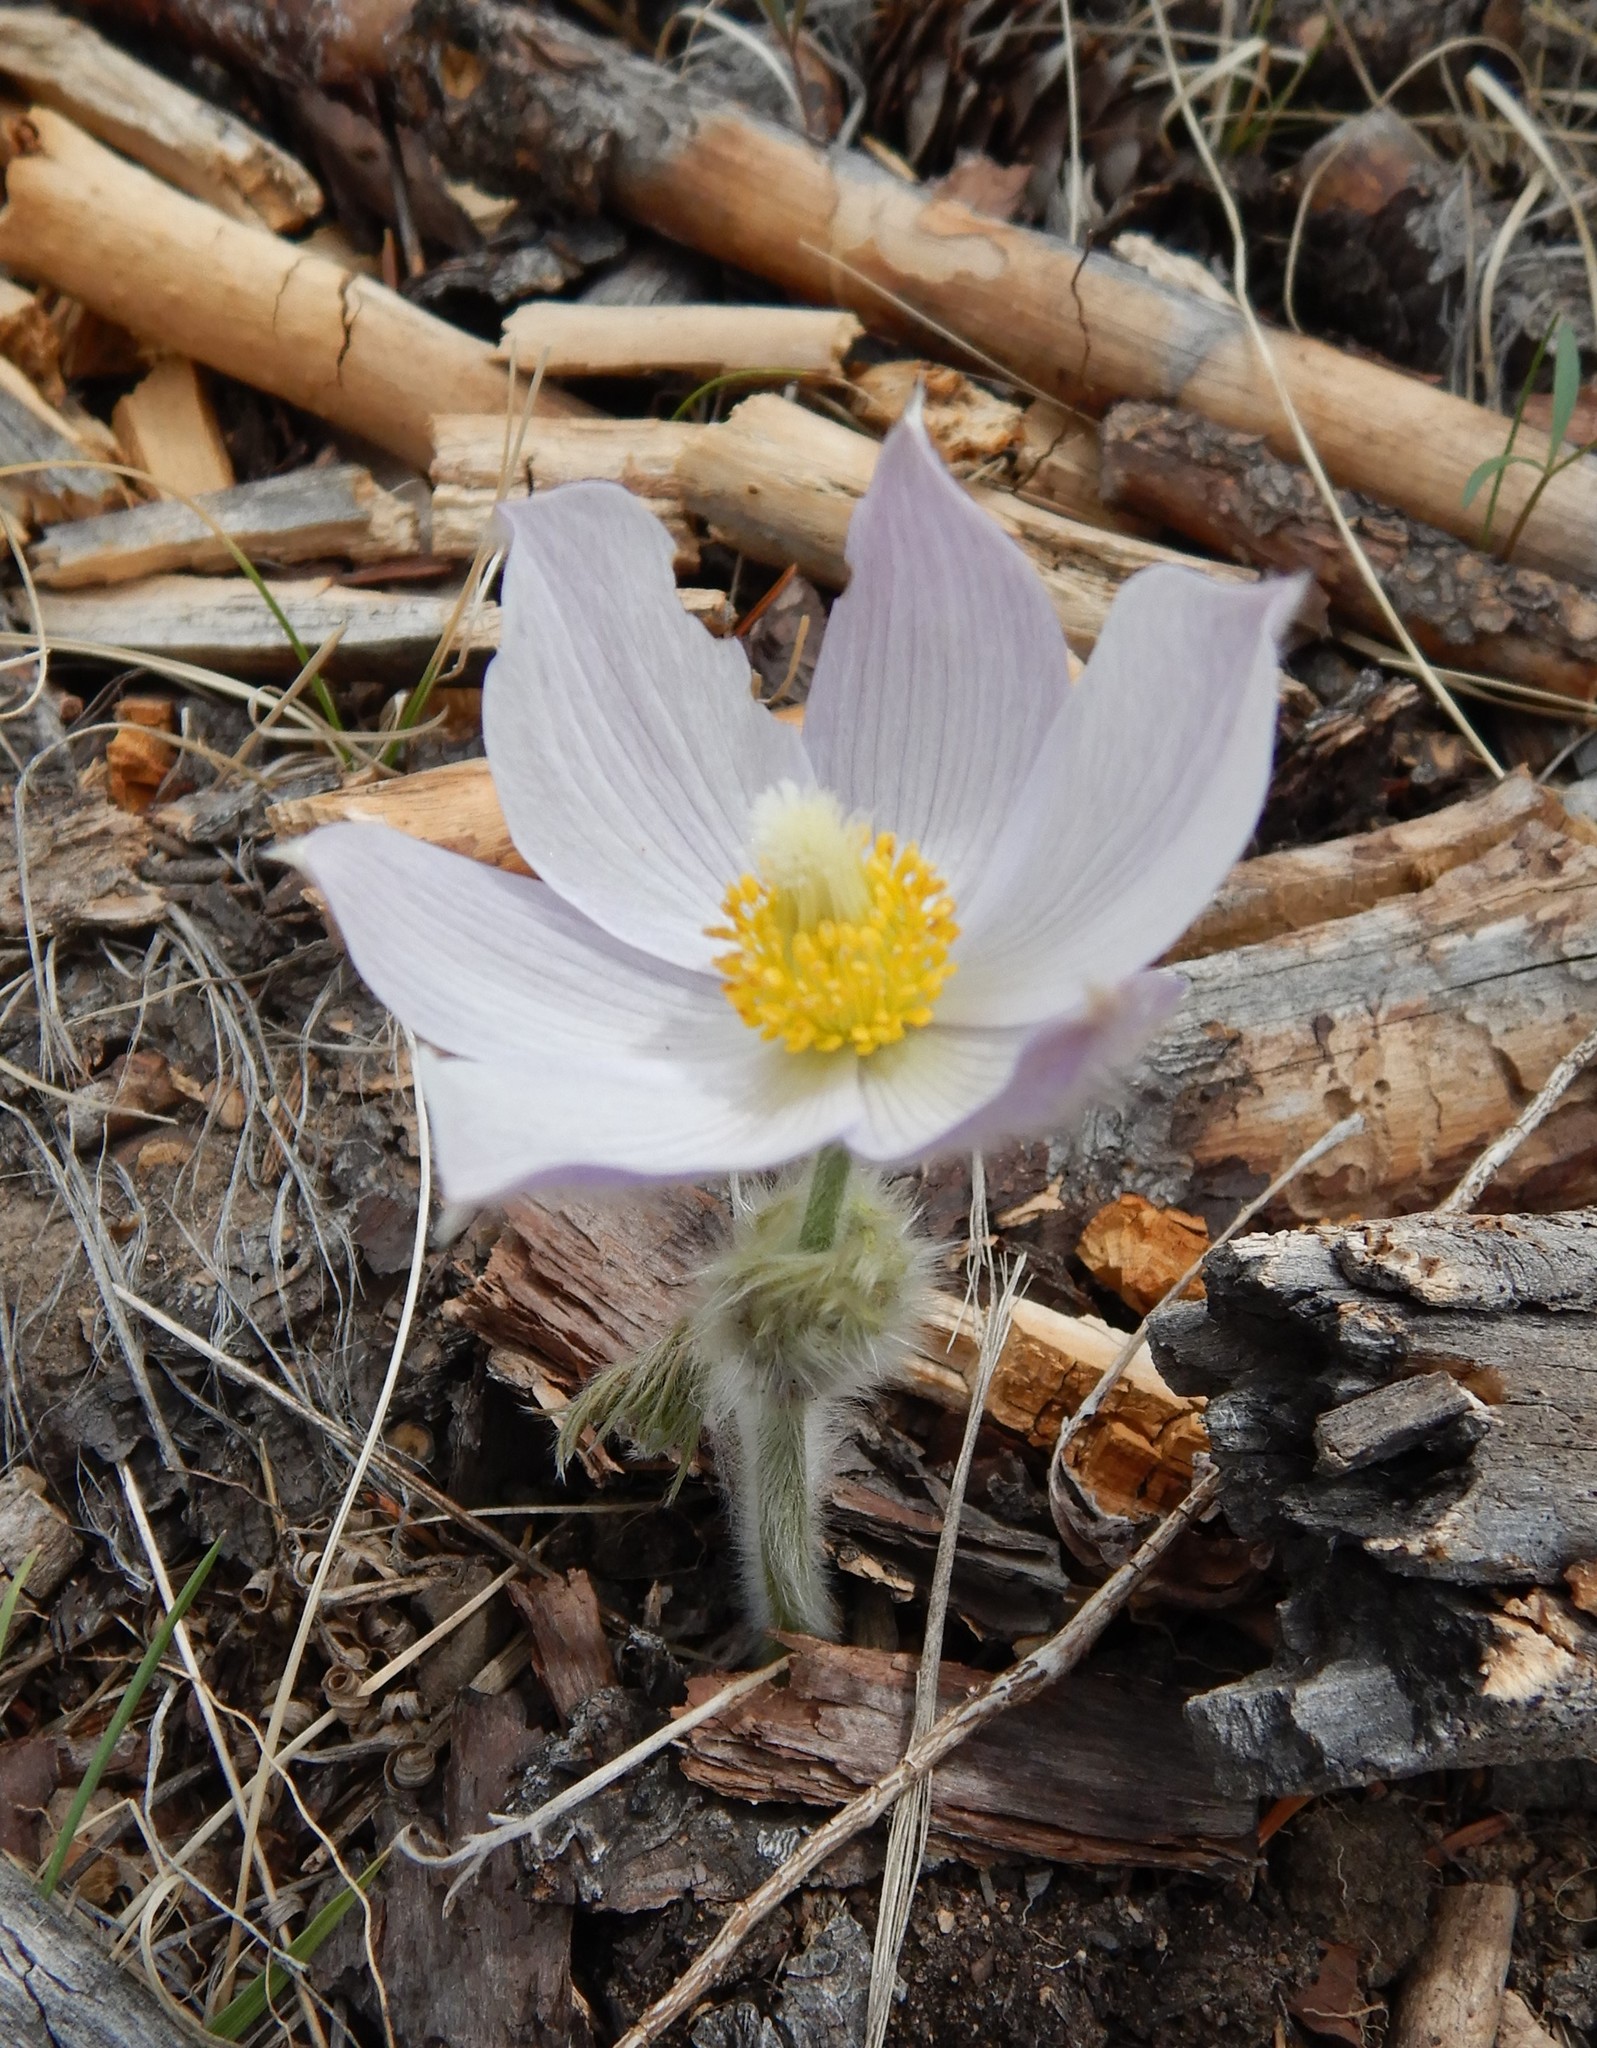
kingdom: Plantae
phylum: Tracheophyta
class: Magnoliopsida
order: Ranunculales
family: Ranunculaceae
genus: Pulsatilla
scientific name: Pulsatilla nuttalliana
